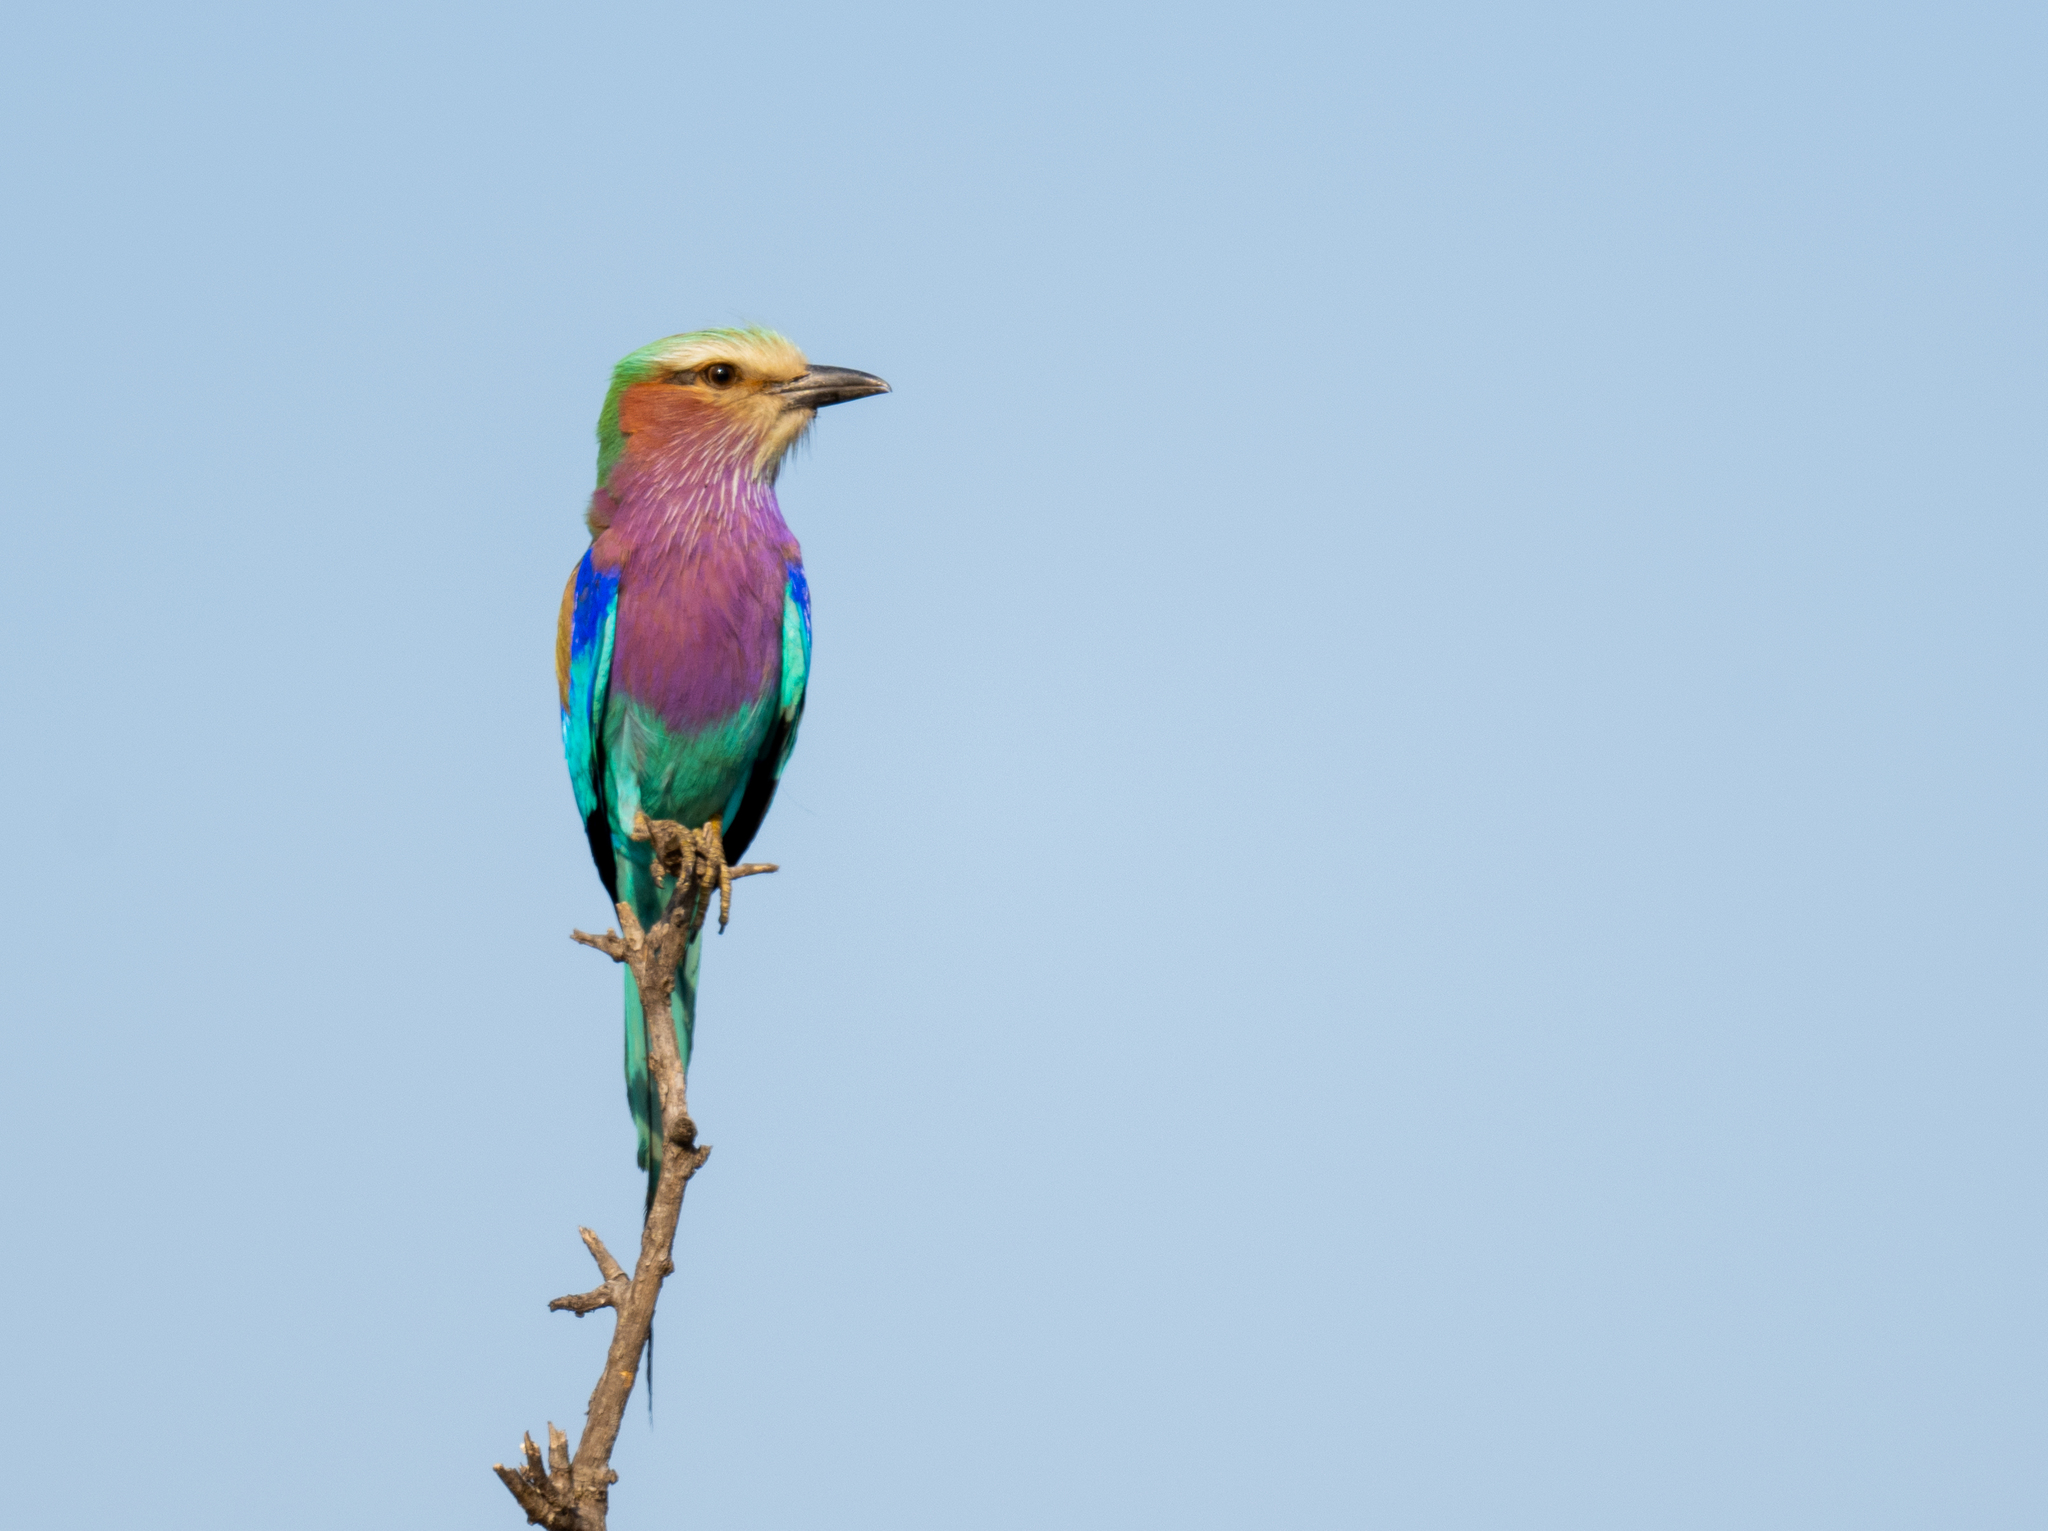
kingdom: Animalia
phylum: Chordata
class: Aves
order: Coraciiformes
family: Coraciidae
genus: Coracias
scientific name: Coracias caudatus
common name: Lilac-breasted roller
